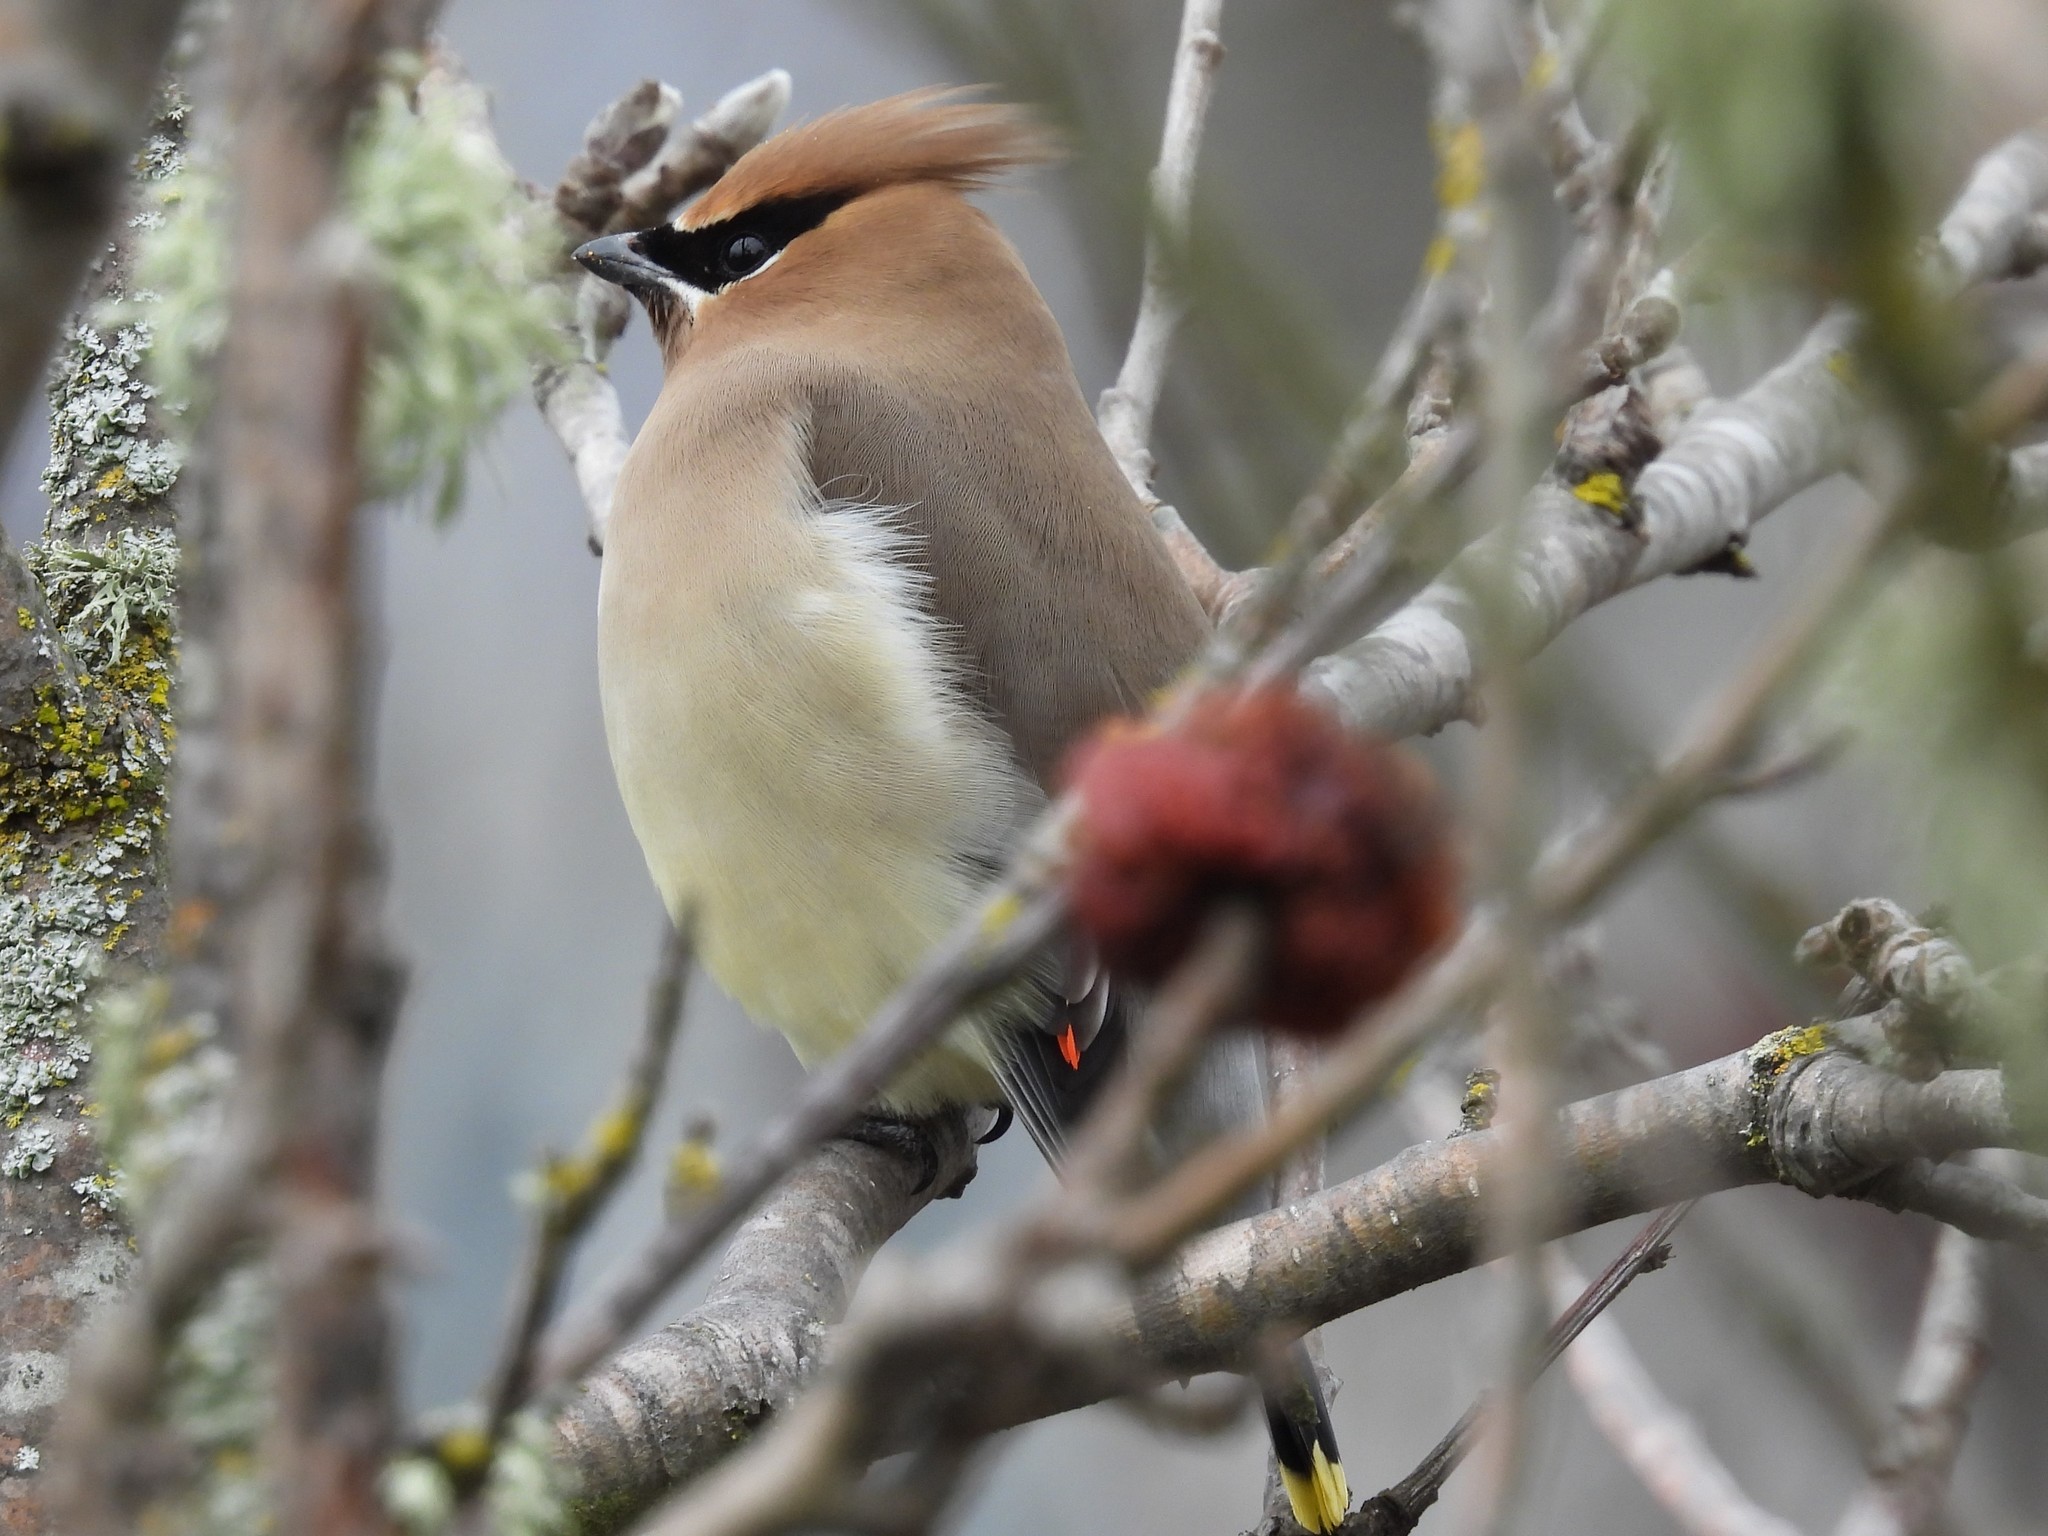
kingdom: Animalia
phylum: Chordata
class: Aves
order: Passeriformes
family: Bombycillidae
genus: Bombycilla
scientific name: Bombycilla cedrorum
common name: Cedar waxwing
